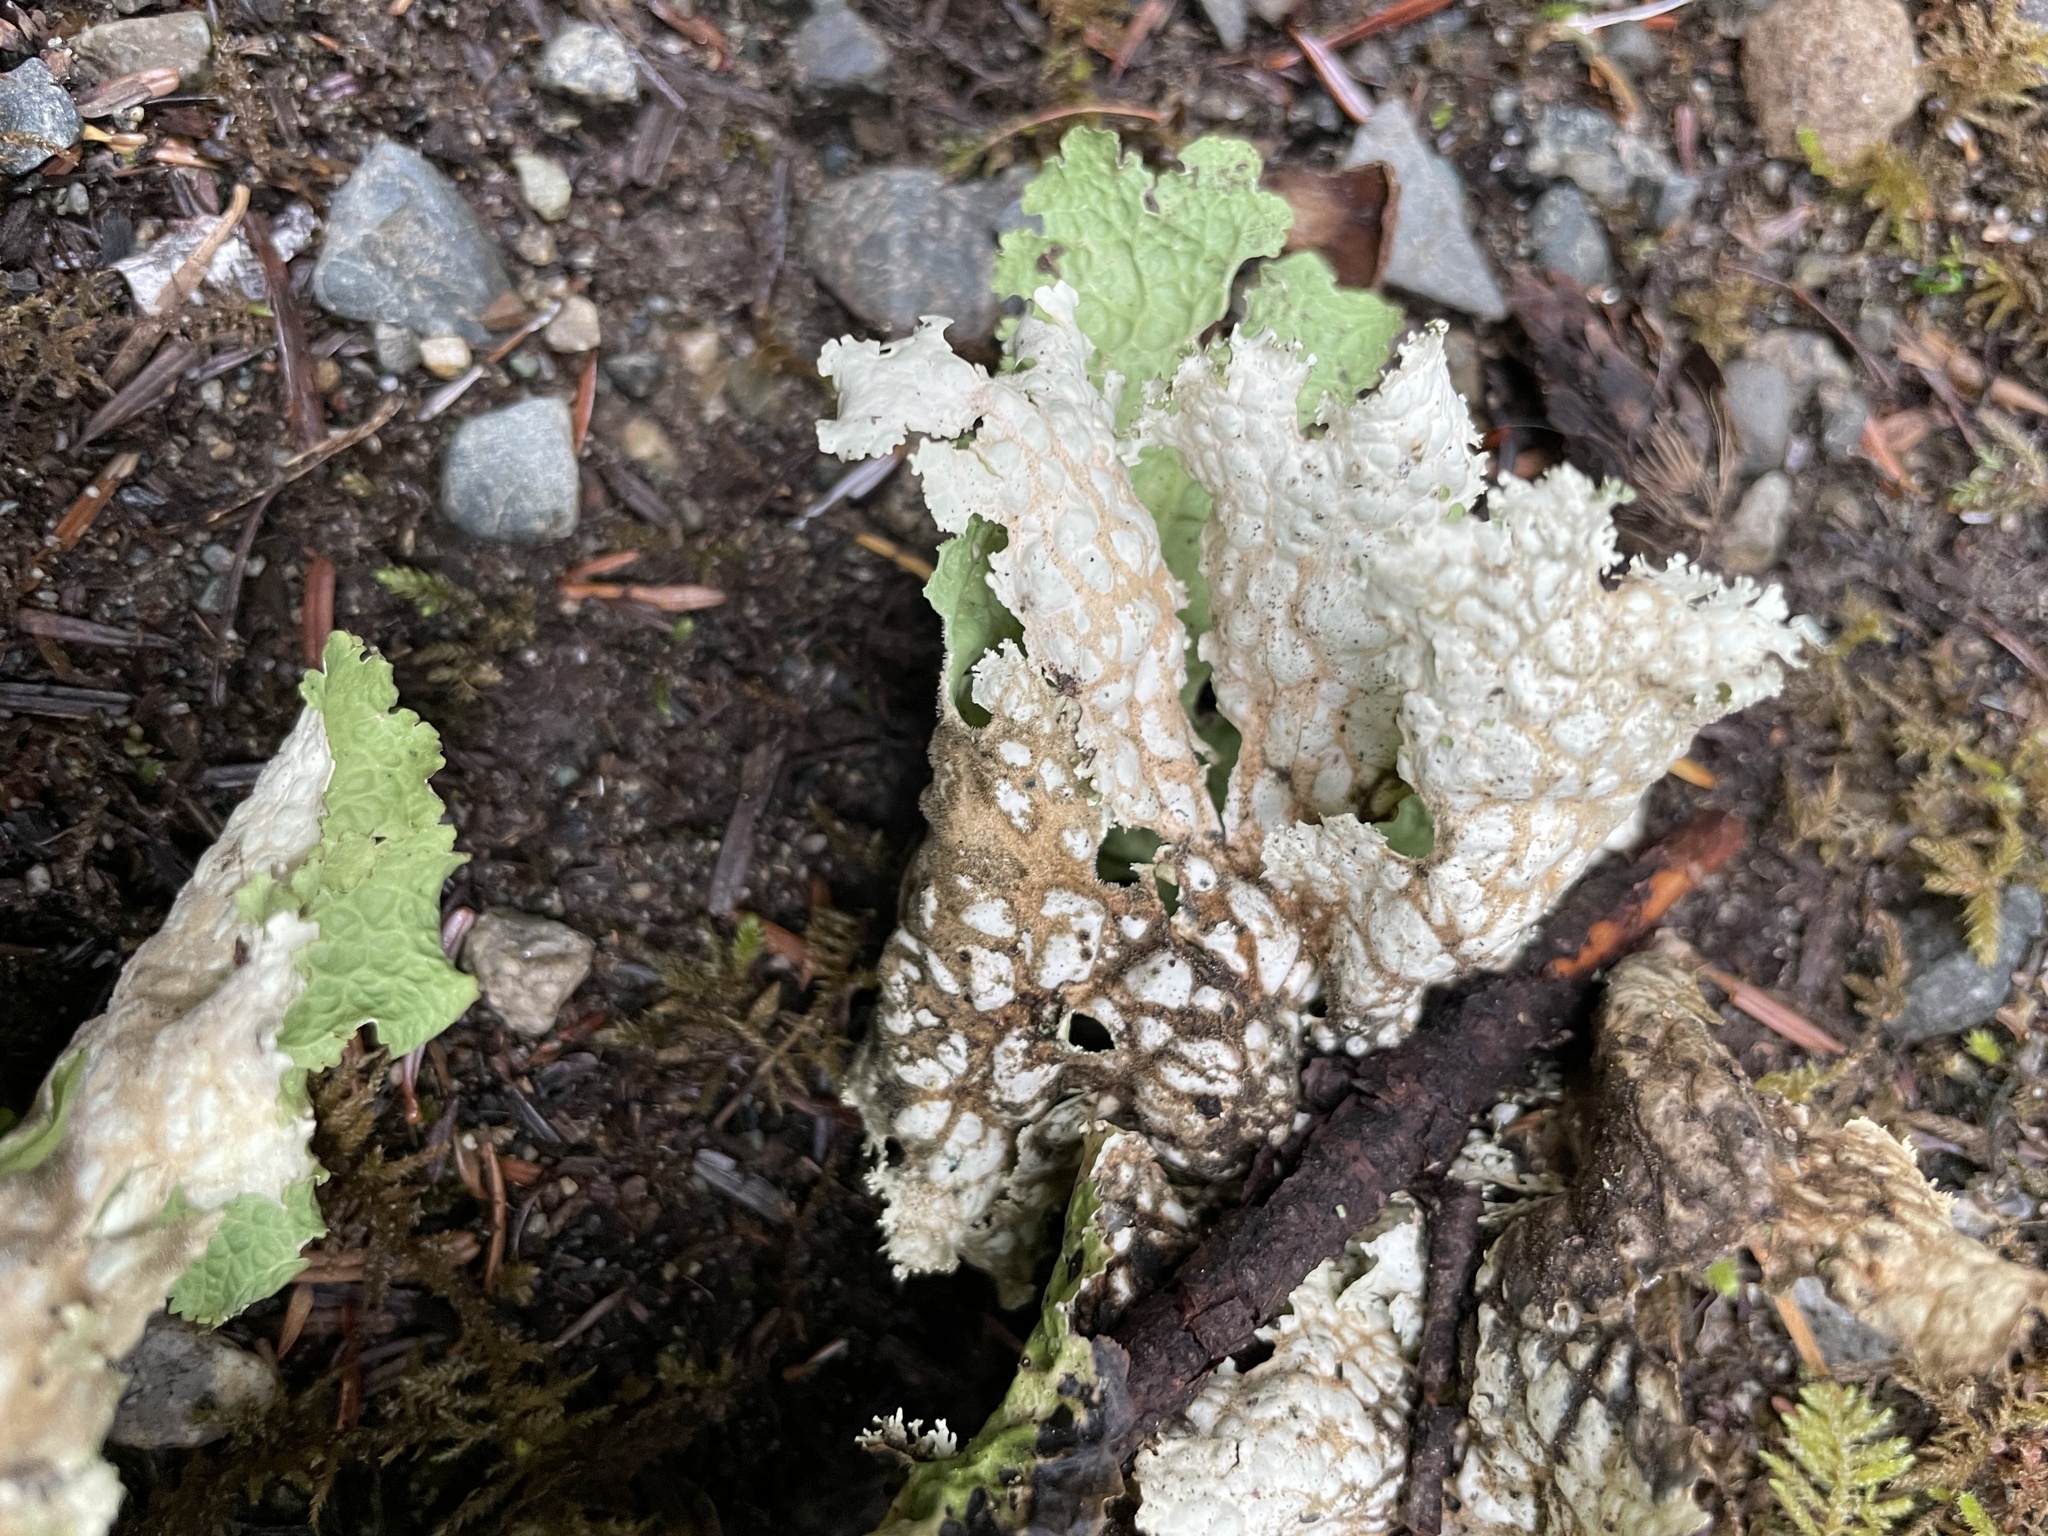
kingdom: Fungi
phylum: Ascomycota
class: Lecanoromycetes
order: Peltigerales
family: Lobariaceae
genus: Lobaria
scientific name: Lobaria oregana
